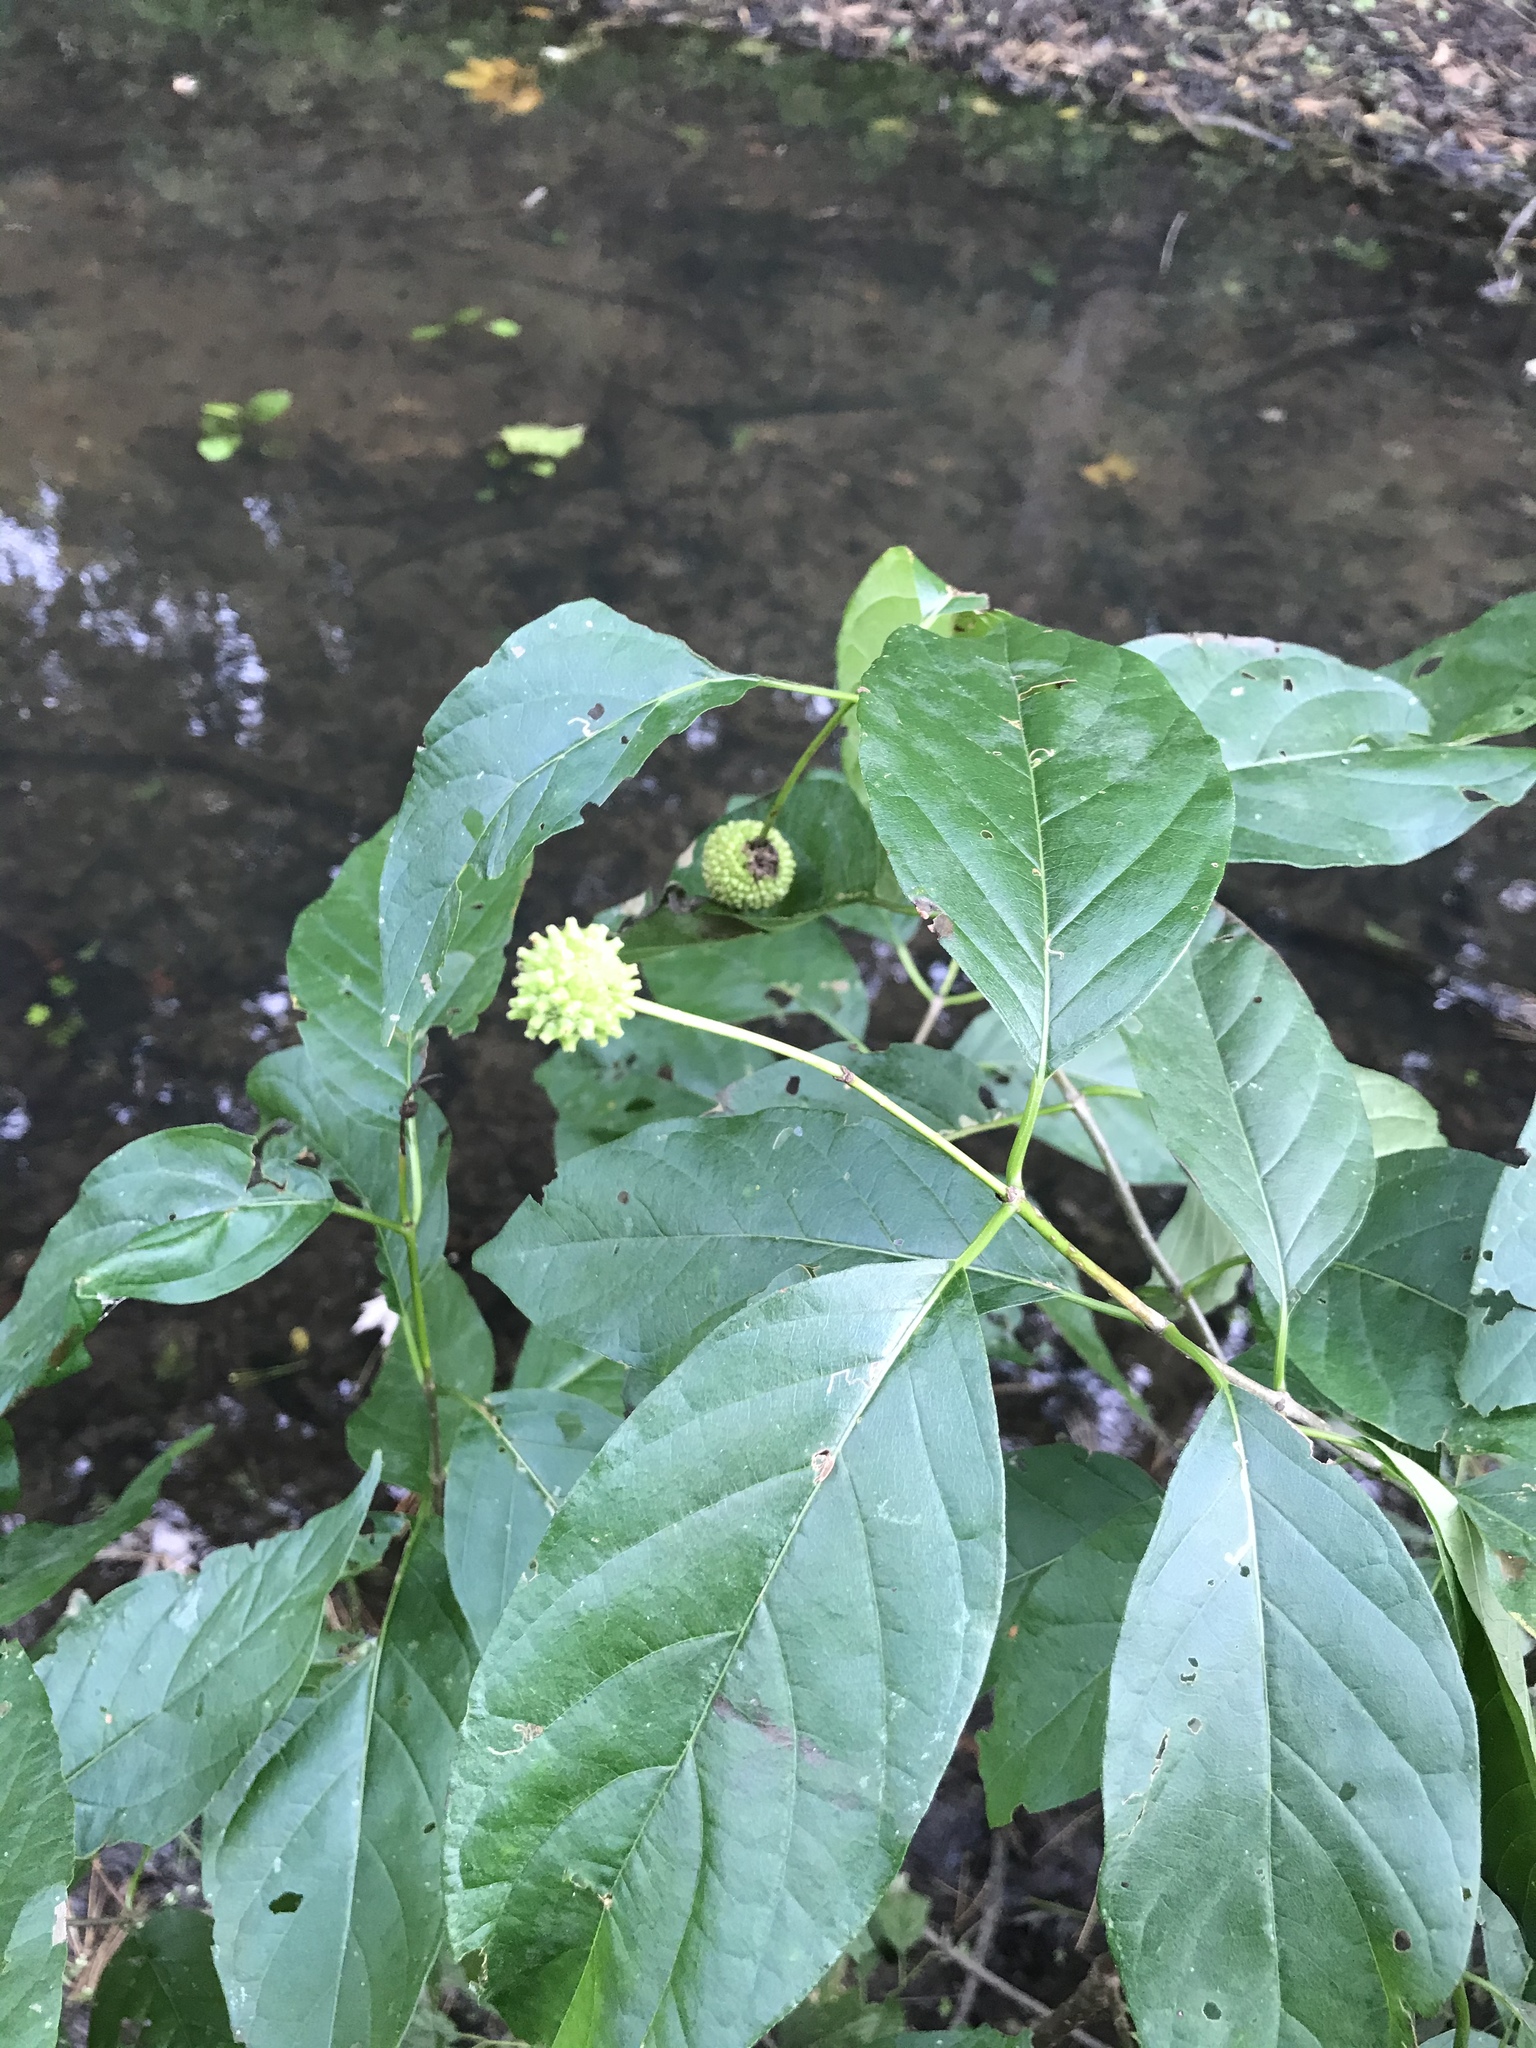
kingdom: Plantae
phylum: Tracheophyta
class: Magnoliopsida
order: Gentianales
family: Rubiaceae
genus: Cephalanthus
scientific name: Cephalanthus occidentalis
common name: Button-willow
